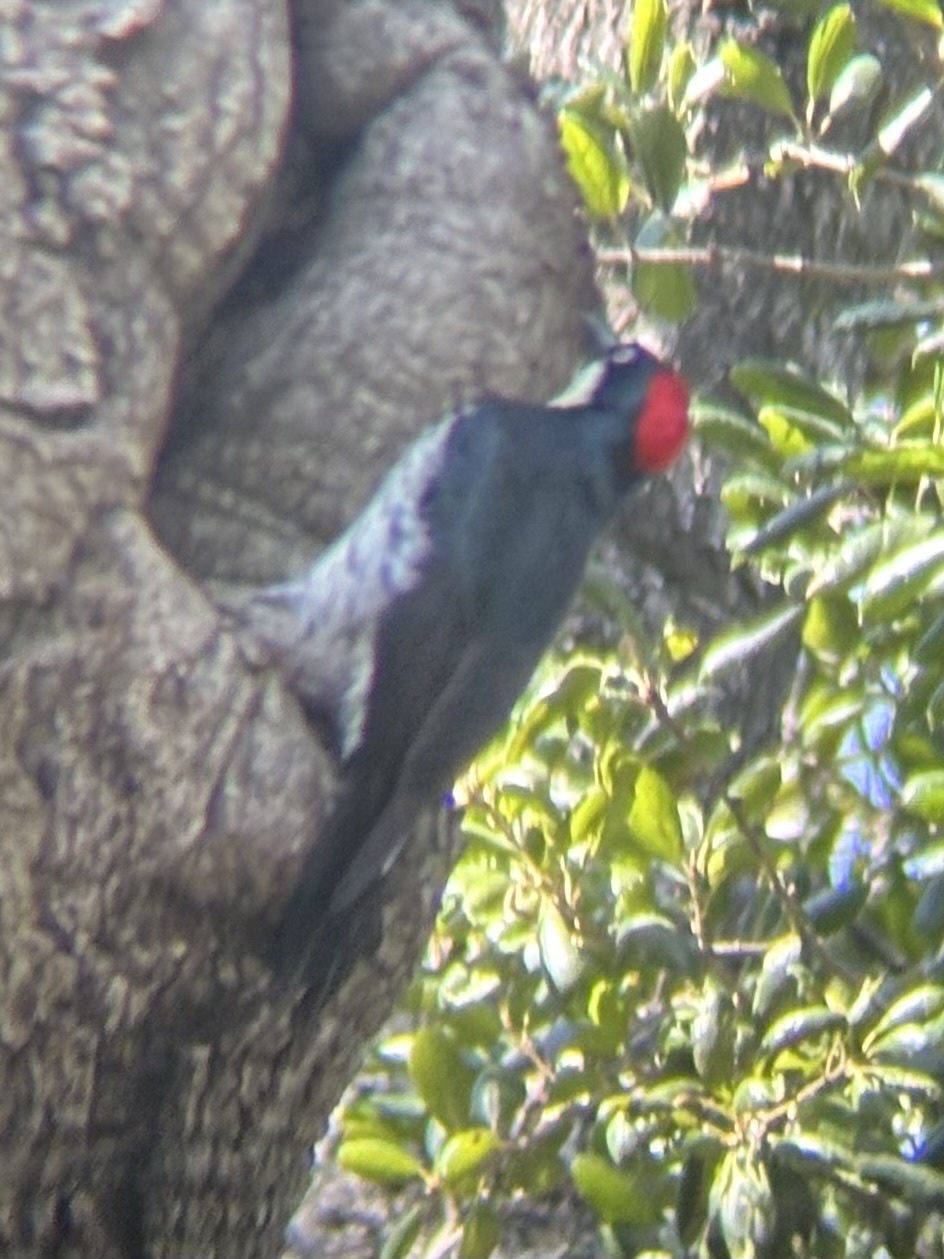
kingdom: Animalia
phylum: Chordata
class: Aves
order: Piciformes
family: Picidae
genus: Melanerpes
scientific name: Melanerpes formicivorus
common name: Acorn woodpecker
